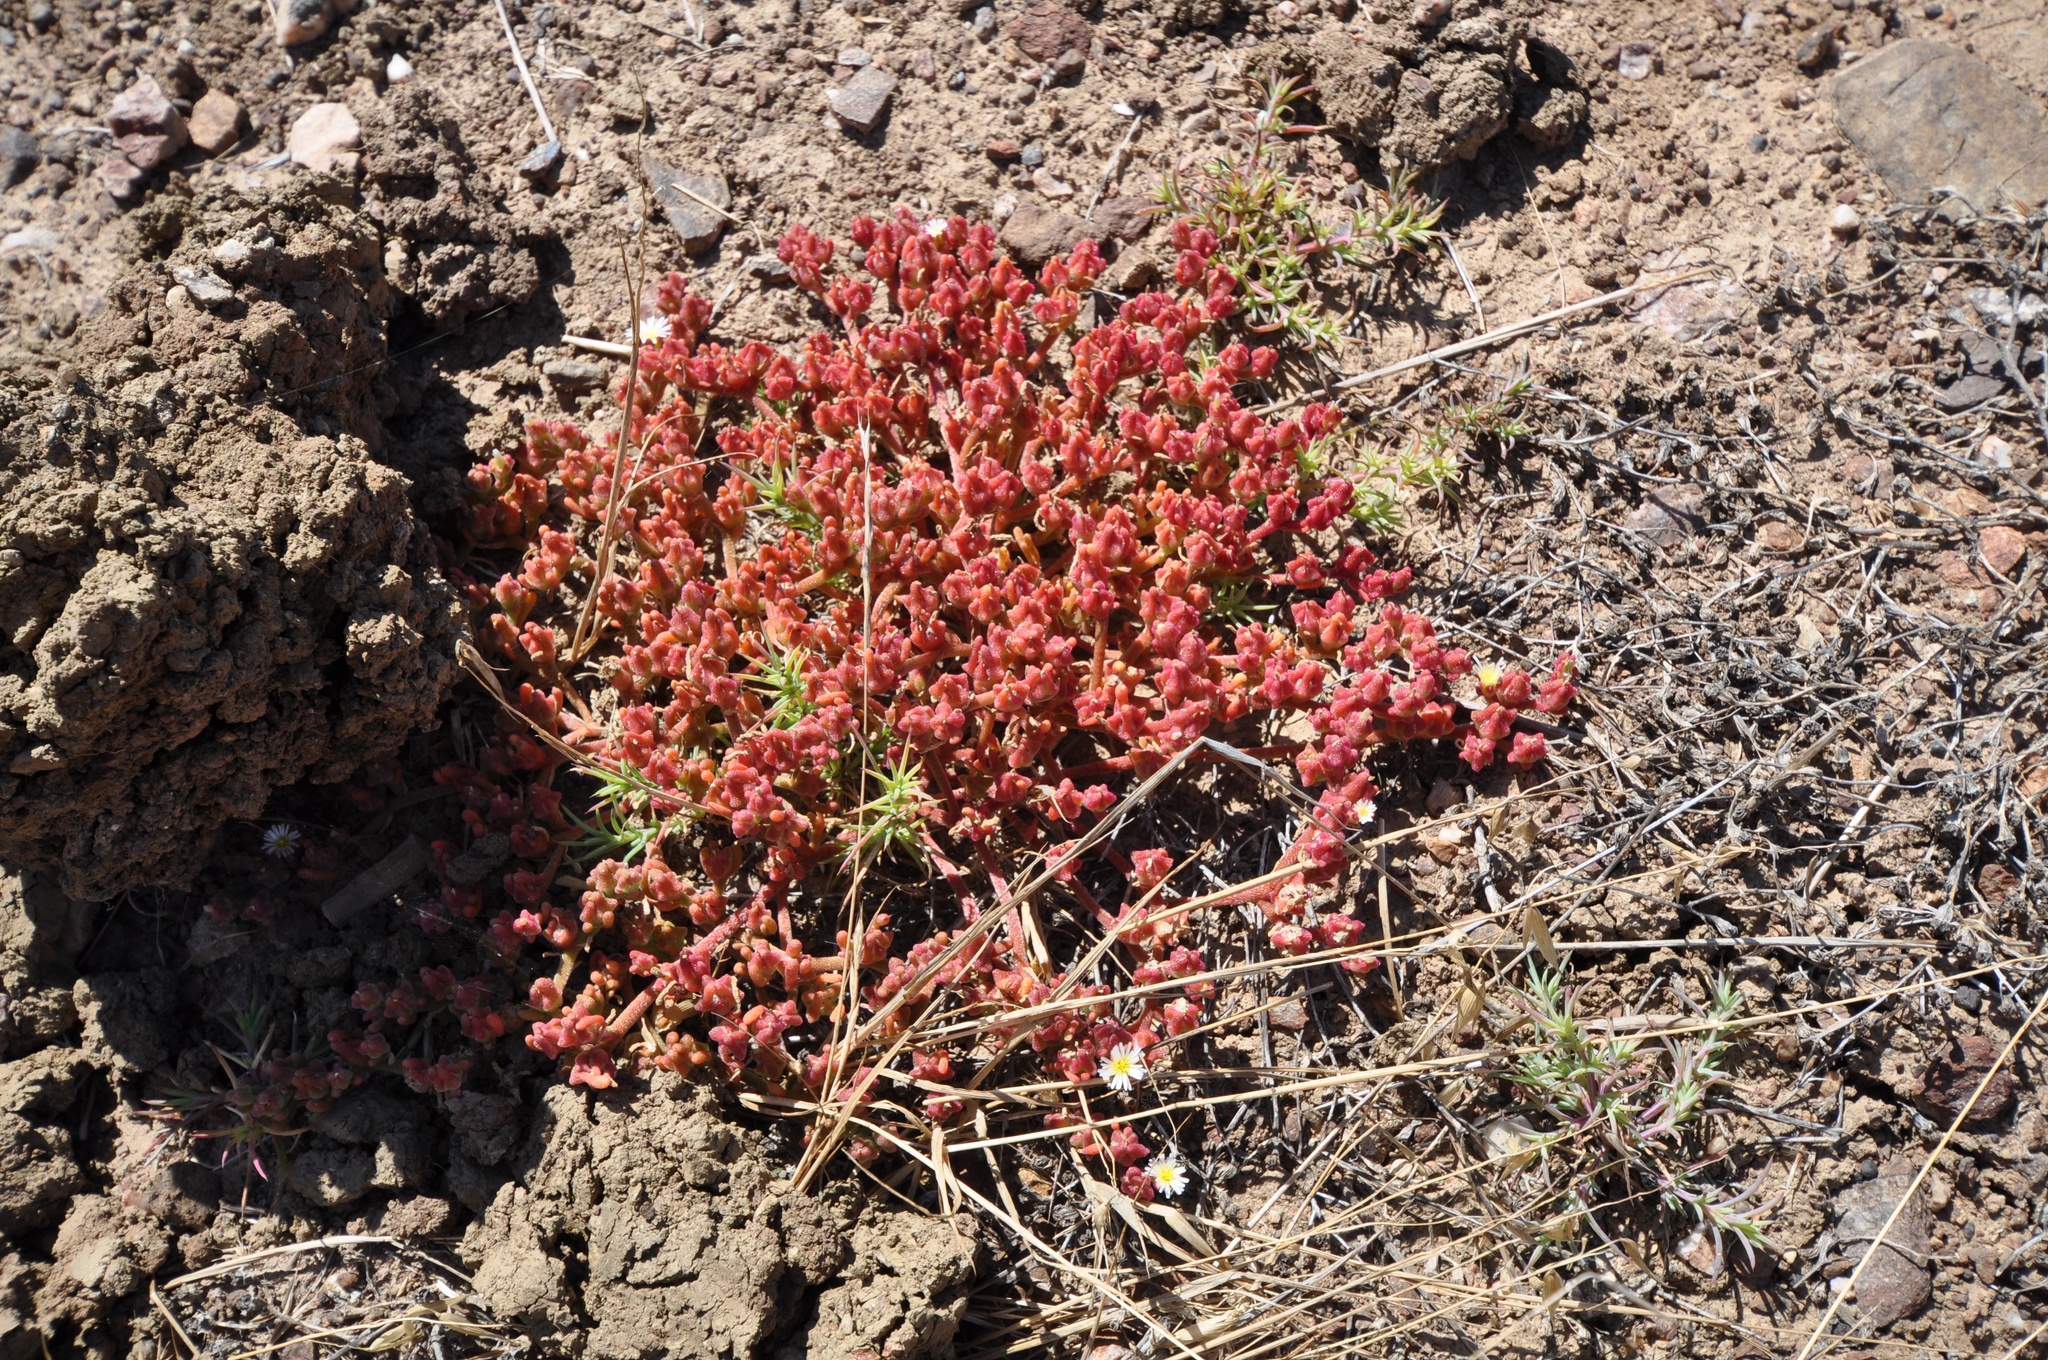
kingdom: Plantae
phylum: Tracheophyta
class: Magnoliopsida
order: Caryophyllales
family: Aizoaceae
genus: Mesembryanthemum
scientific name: Mesembryanthemum nodiflorum
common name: Slenderleaf iceplant
